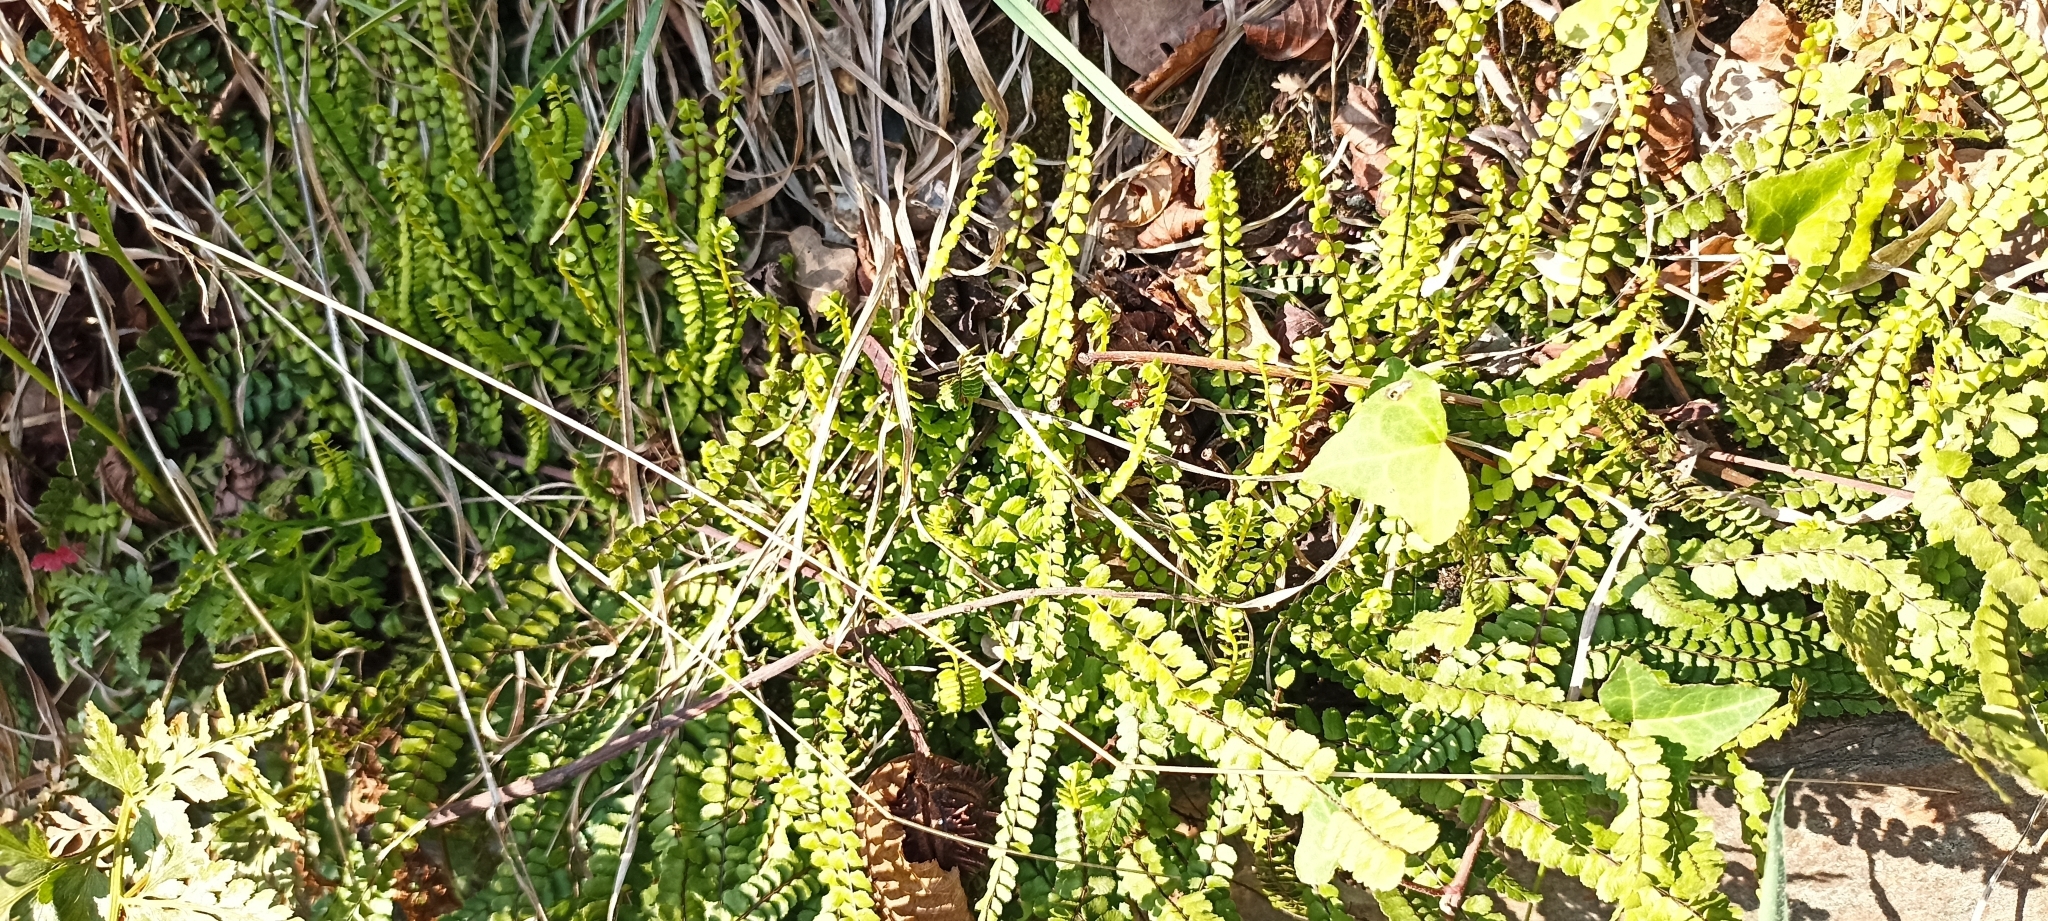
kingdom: Plantae
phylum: Tracheophyta
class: Polypodiopsida
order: Polypodiales
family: Aspleniaceae
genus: Asplenium
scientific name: Asplenium trichomanes
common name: Maidenhair spleenwort
